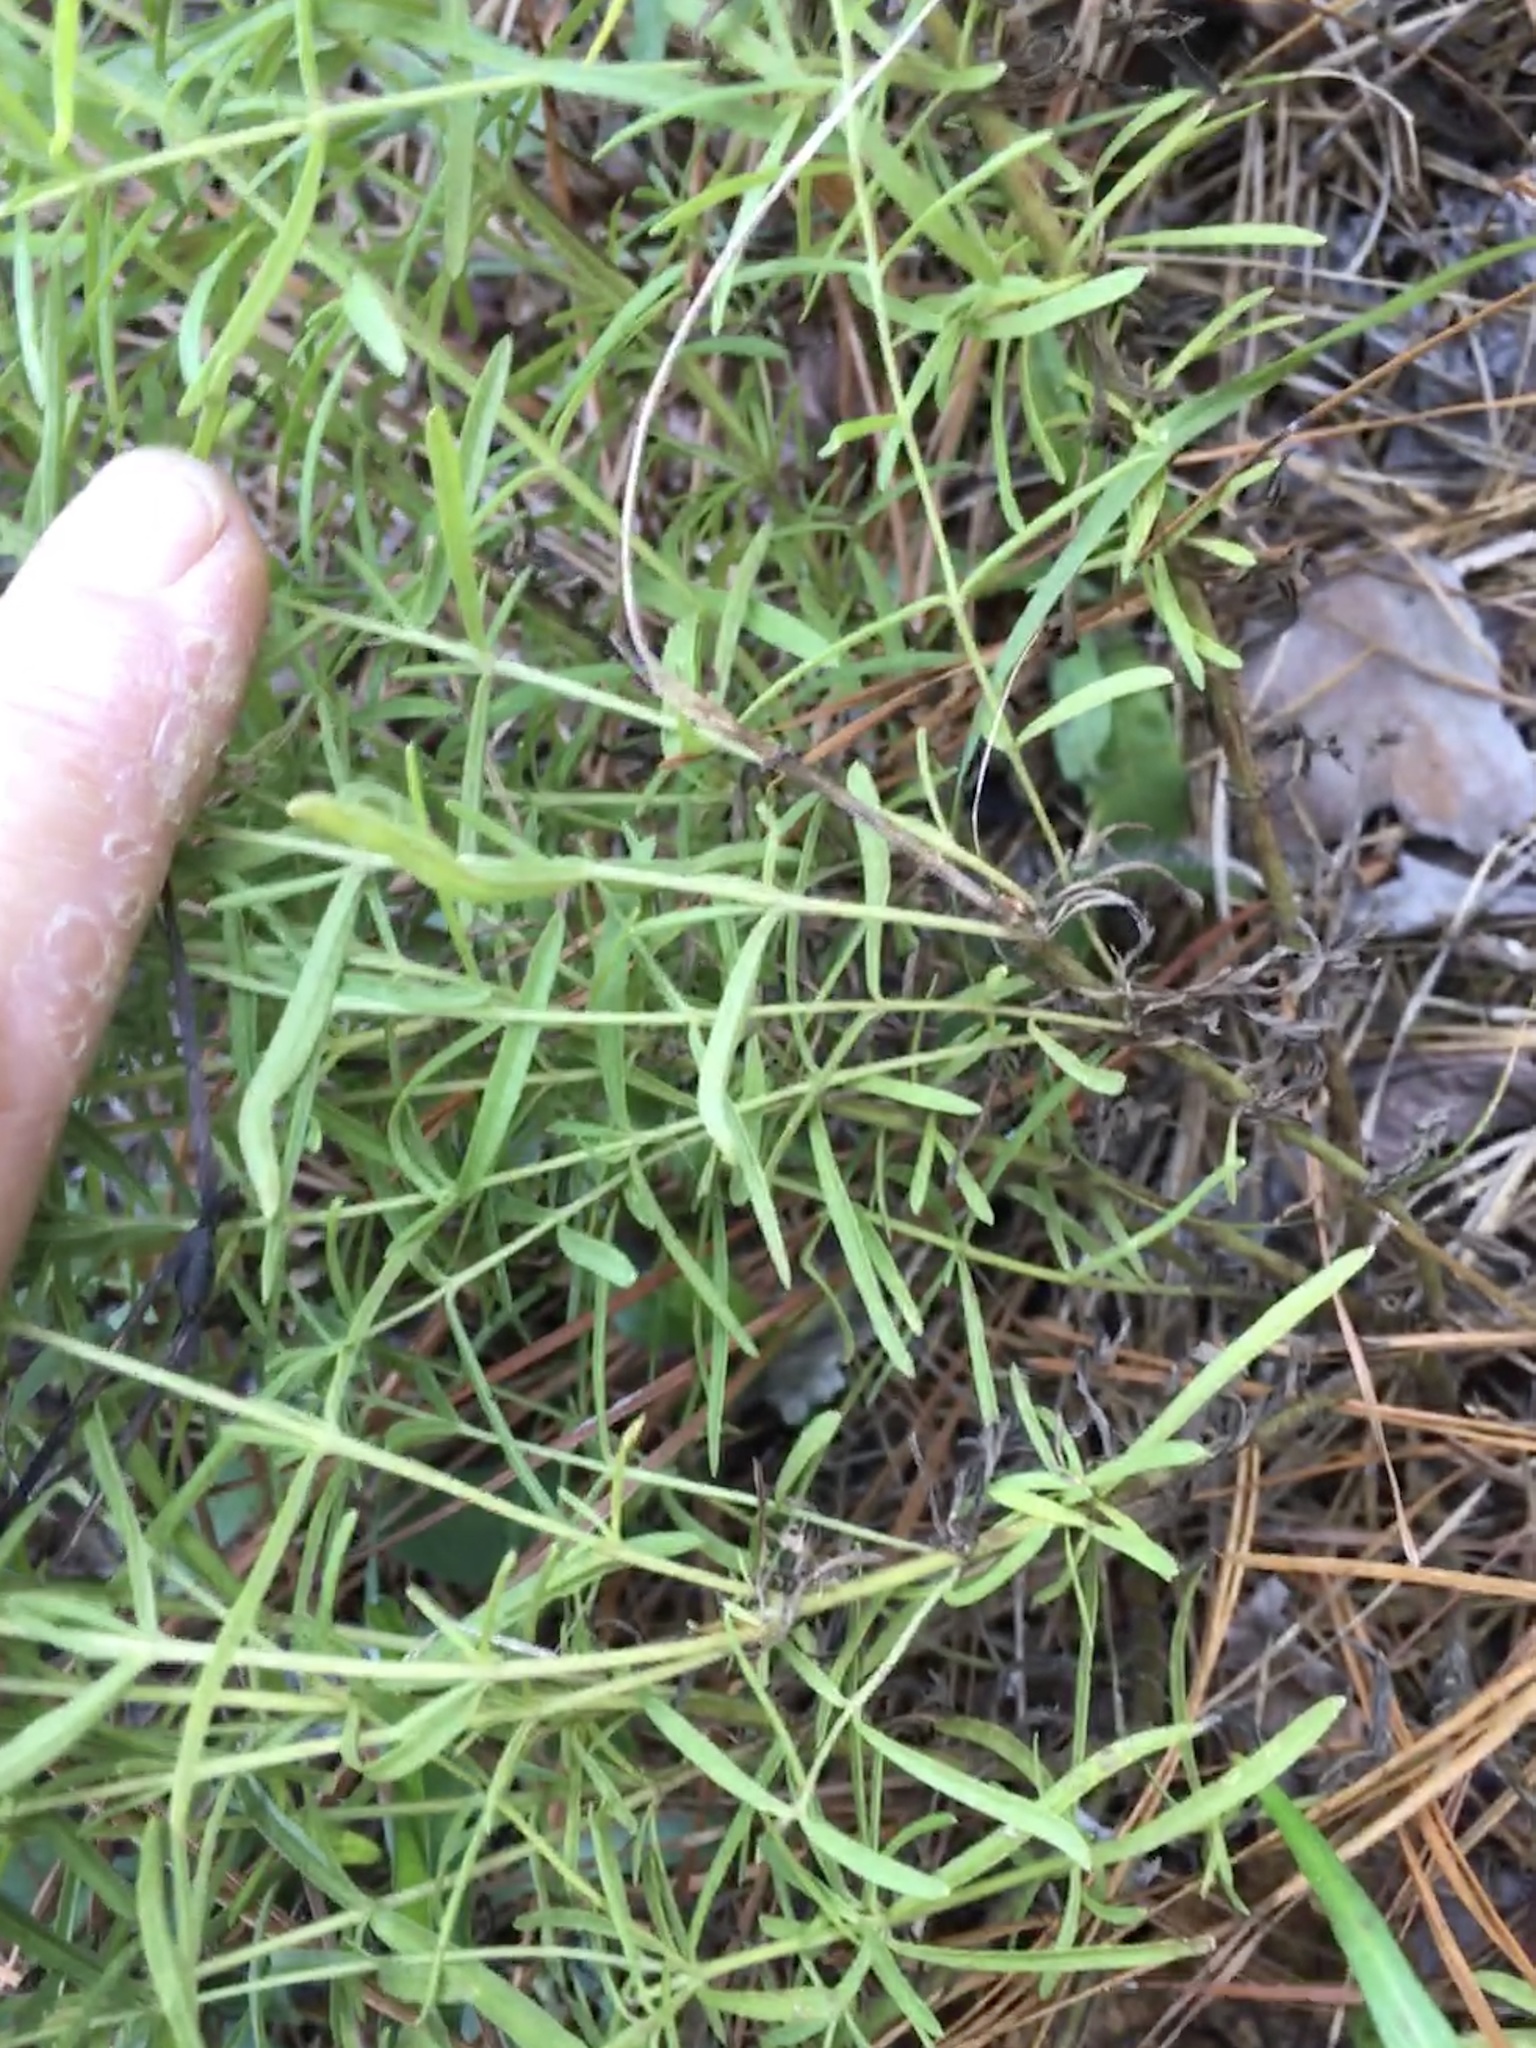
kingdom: Plantae
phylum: Tracheophyta
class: Magnoliopsida
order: Asterales
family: Asteraceae
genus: Eupatorium
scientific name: Eupatorium hyssopifolium
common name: Hyssop-leaf thoroughwort
